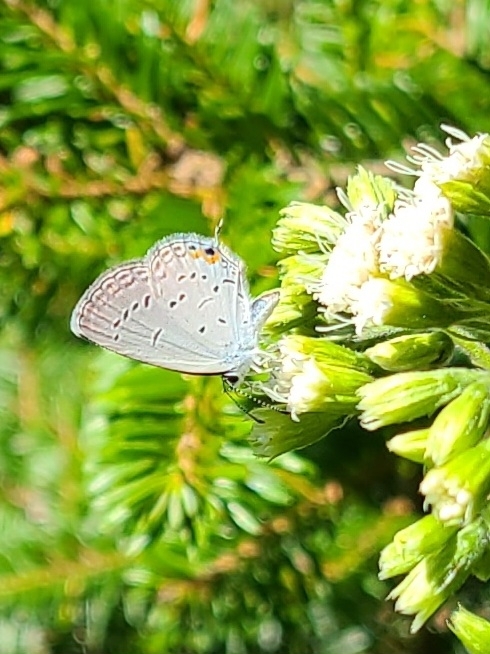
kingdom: Animalia
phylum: Arthropoda
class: Insecta
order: Lepidoptera
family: Lycaenidae
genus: Elkalyce
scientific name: Elkalyce comyntas
